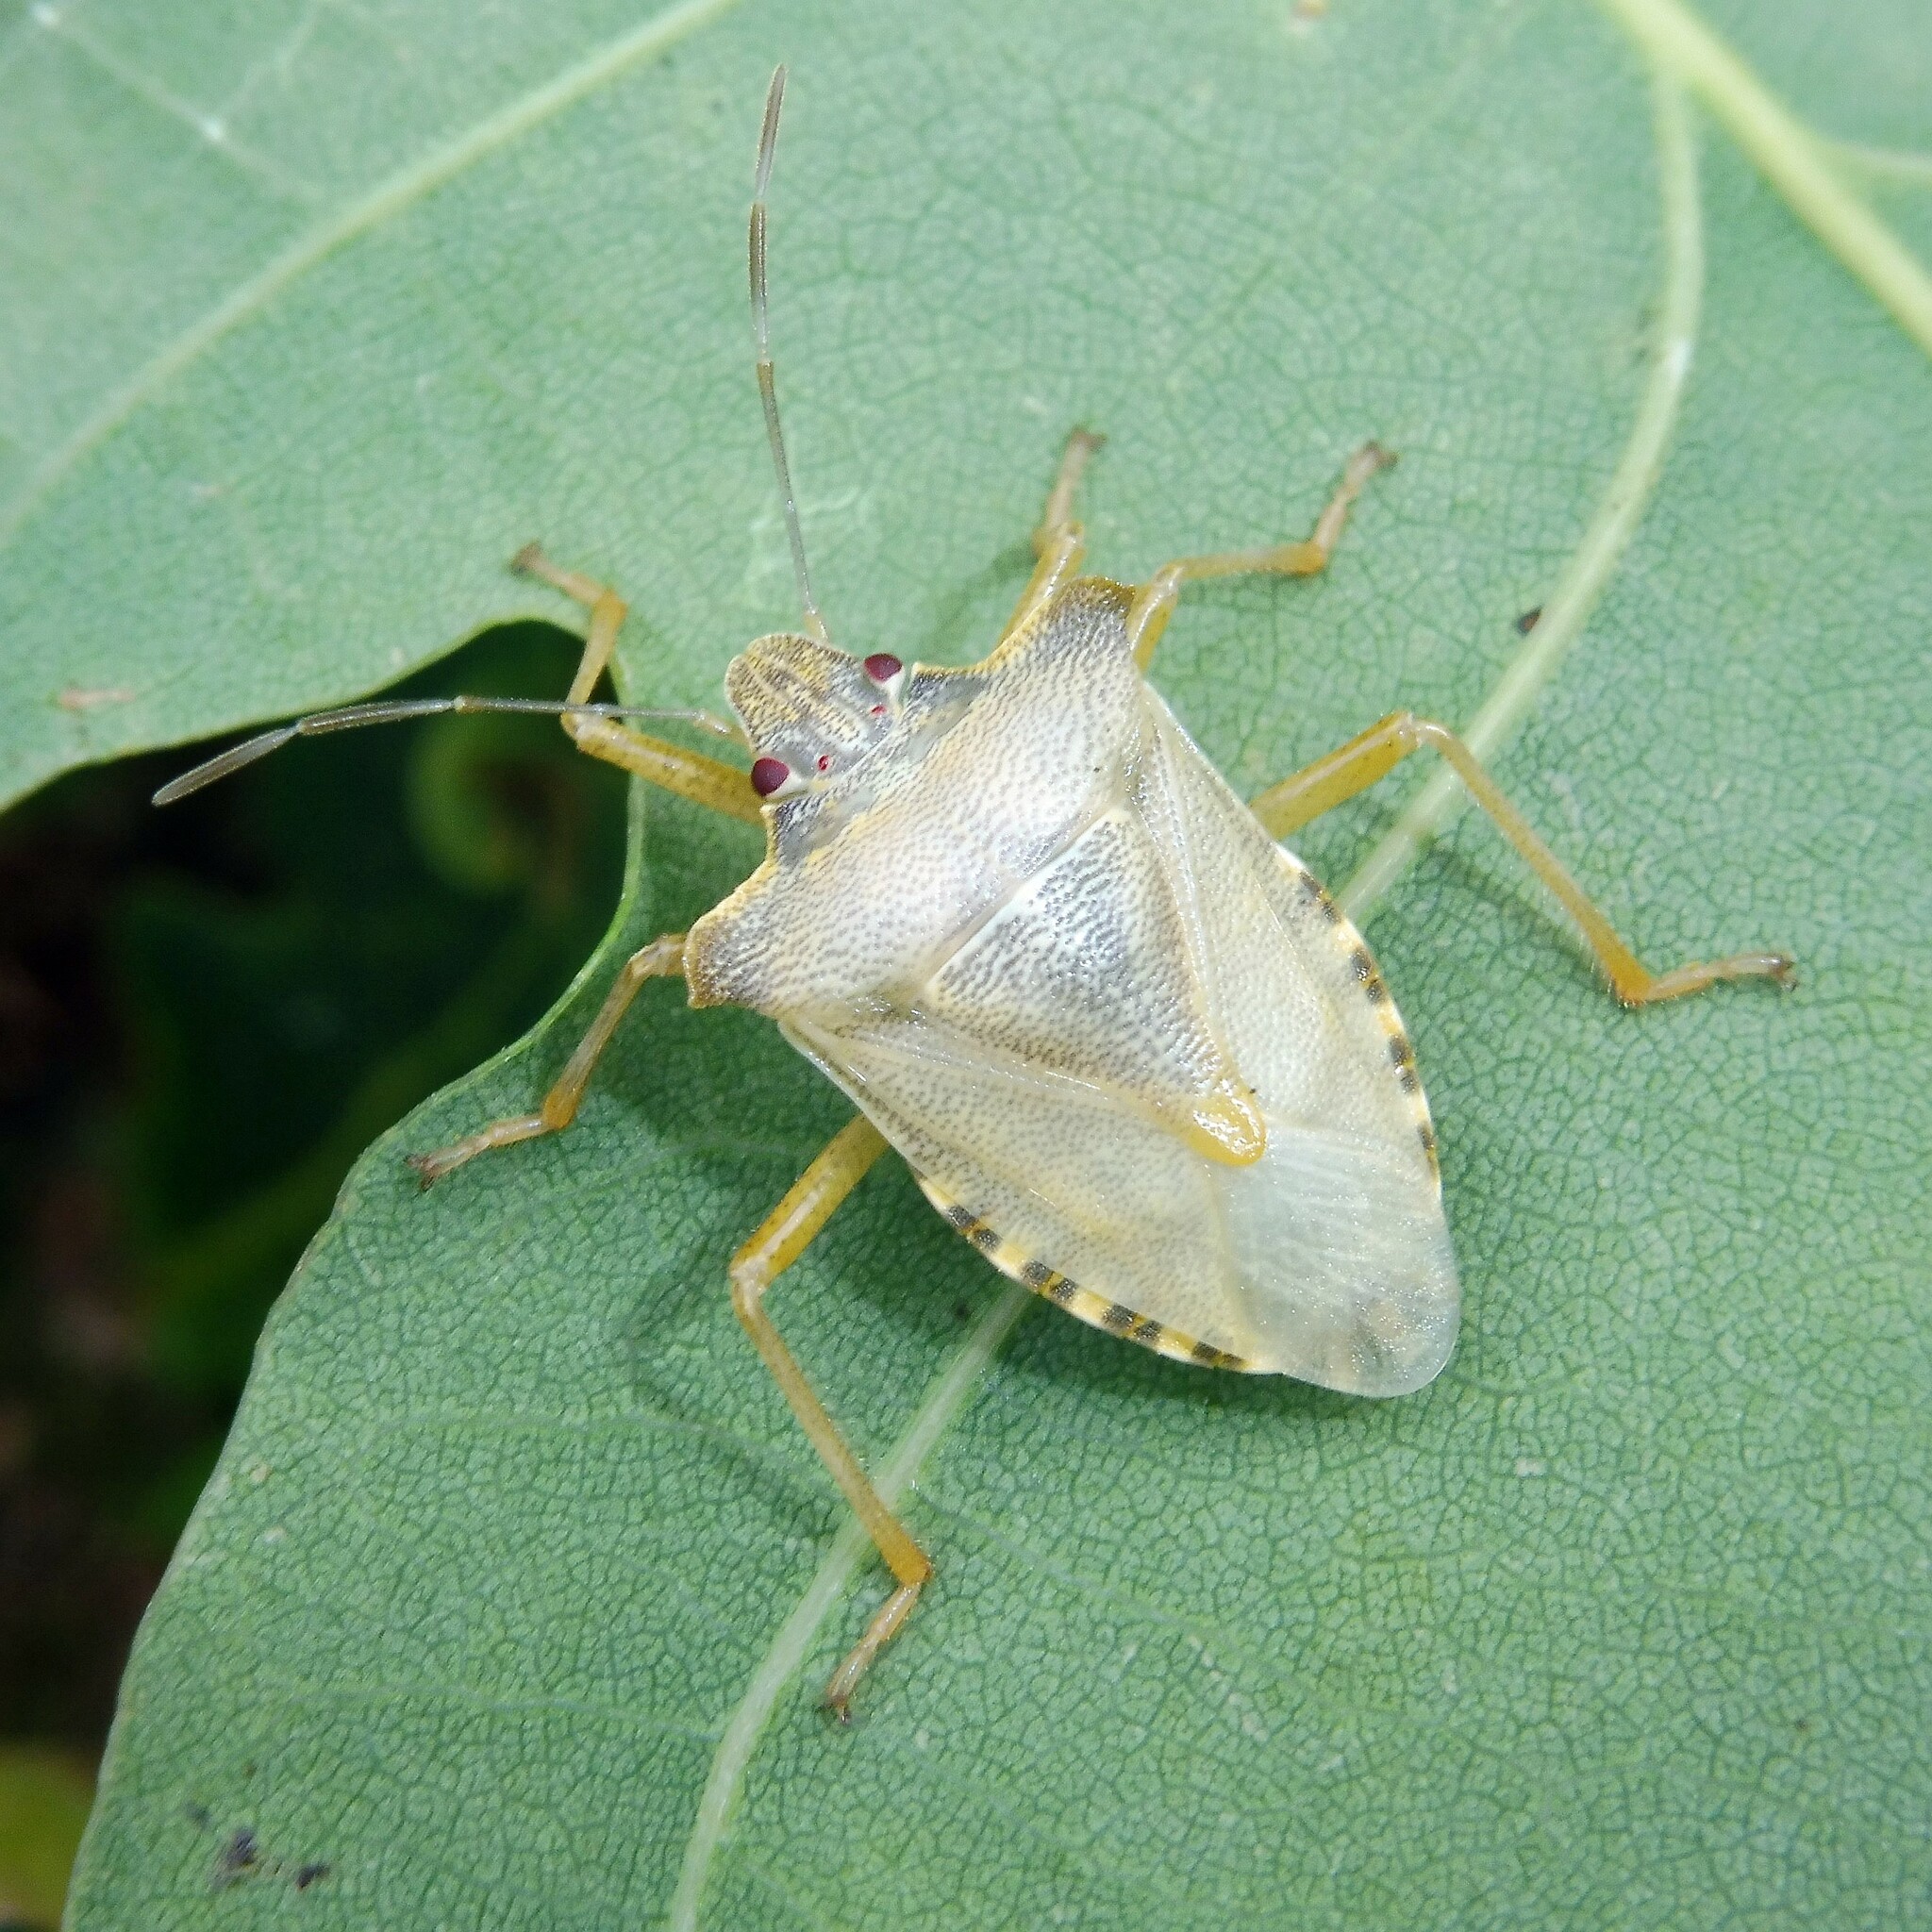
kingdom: Animalia
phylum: Arthropoda
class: Insecta
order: Hemiptera
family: Pentatomidae
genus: Pentatoma
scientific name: Pentatoma rufipes
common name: Forest bug
